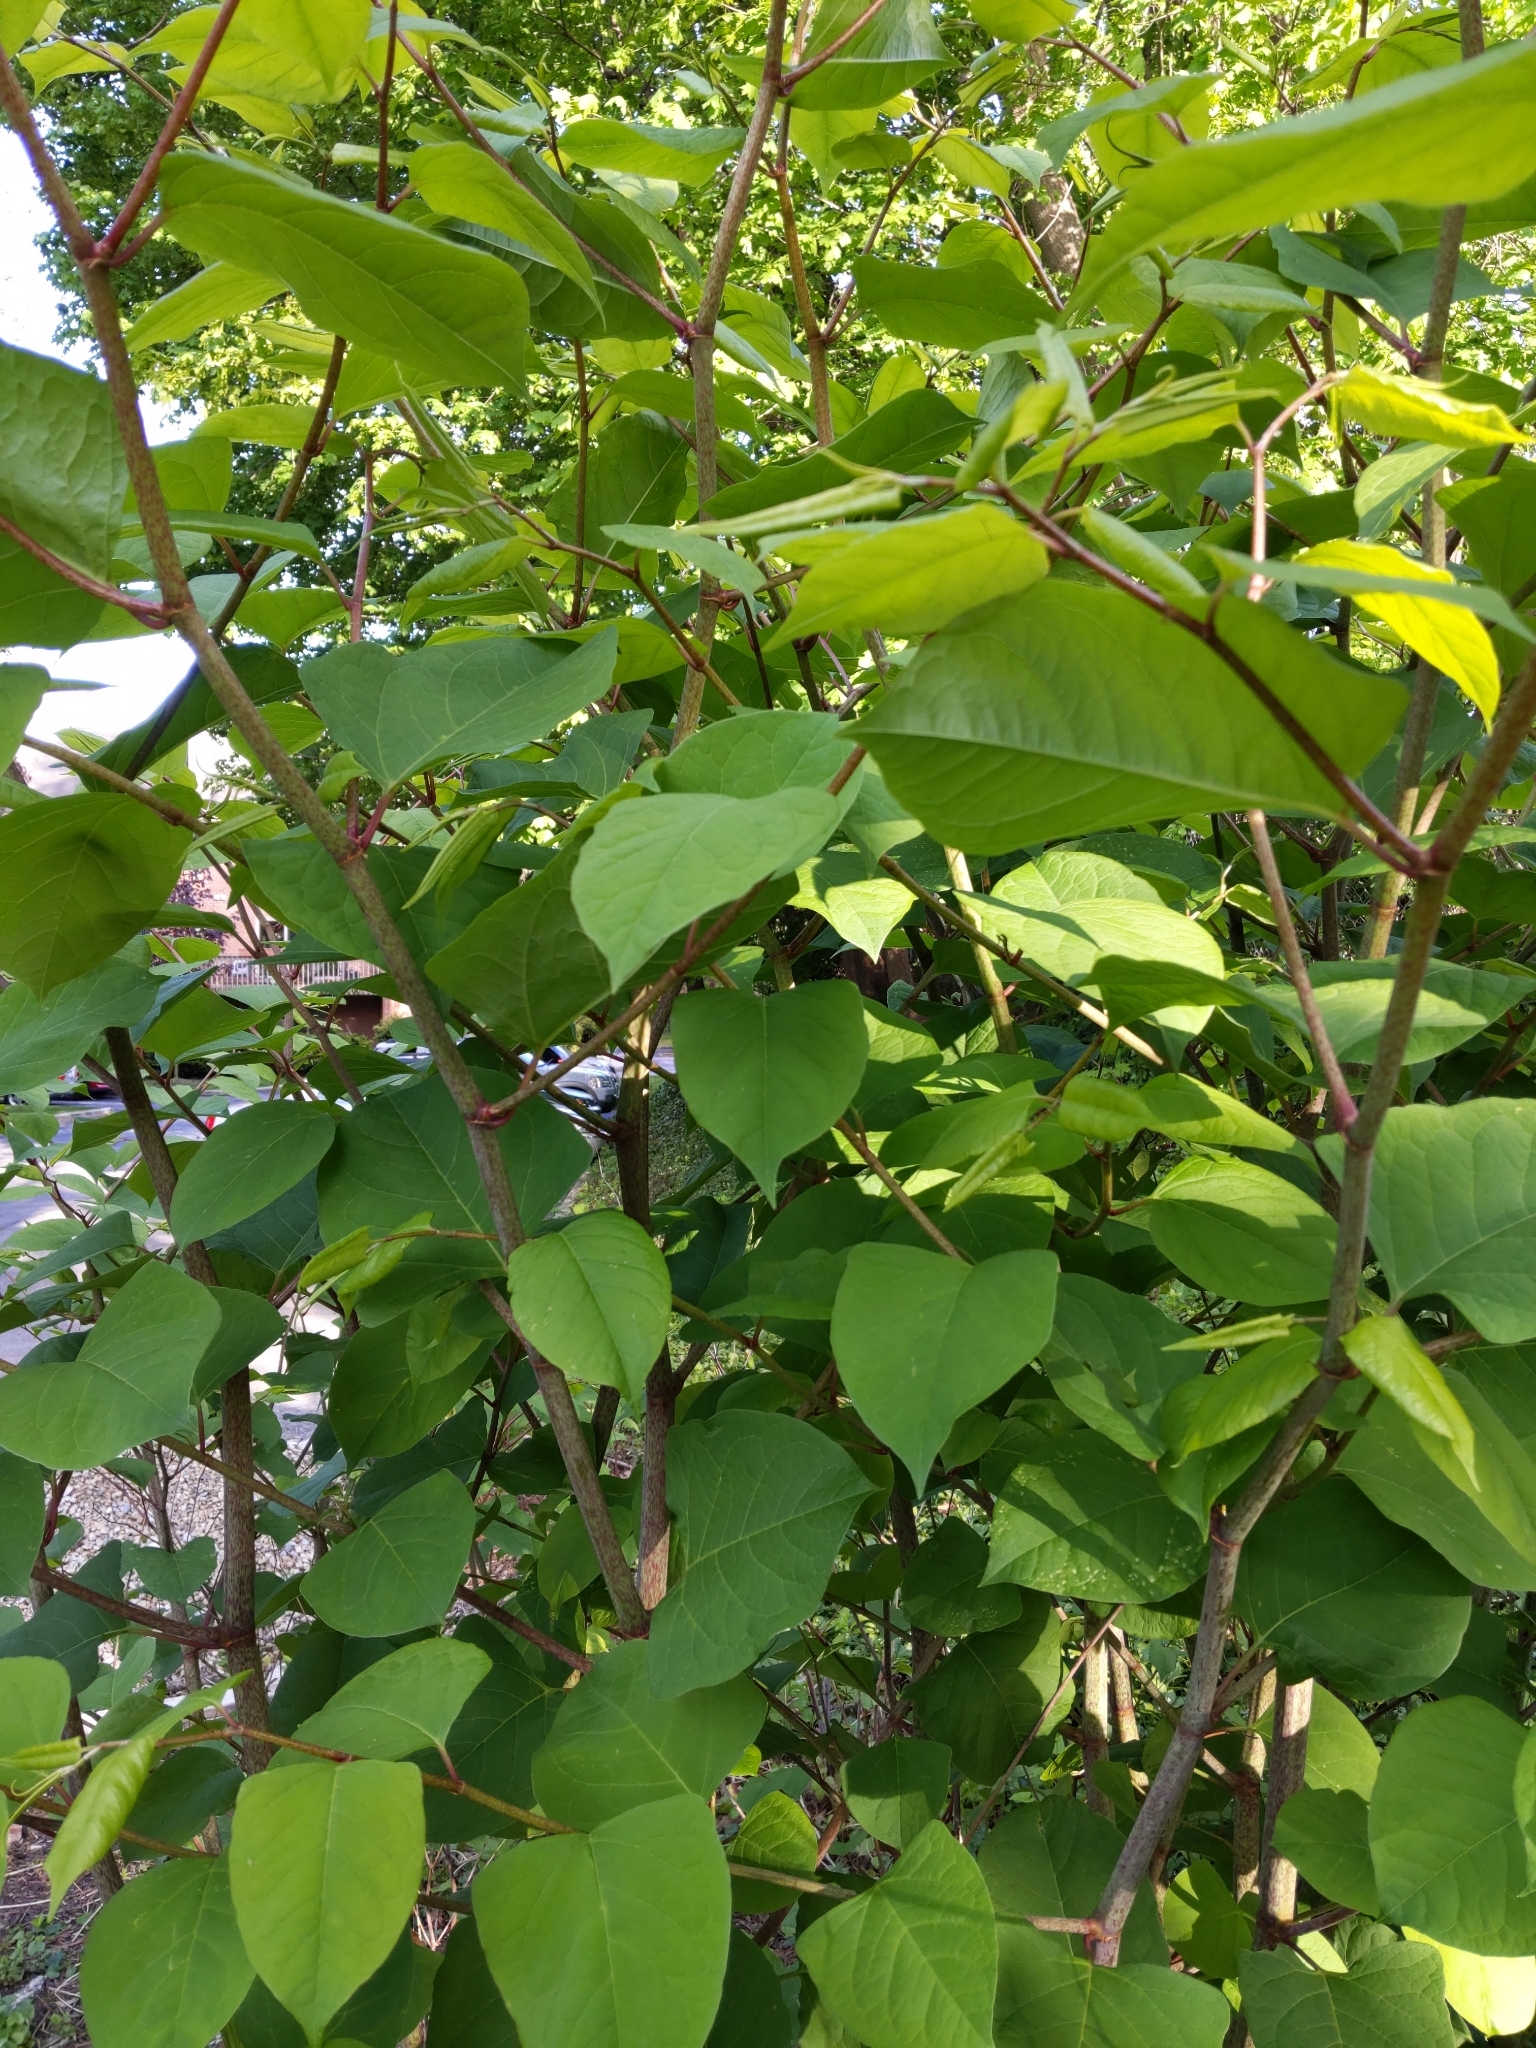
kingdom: Plantae
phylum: Tracheophyta
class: Magnoliopsida
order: Caryophyllales
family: Polygonaceae
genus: Reynoutria
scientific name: Reynoutria japonica
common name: Japanese knotweed
